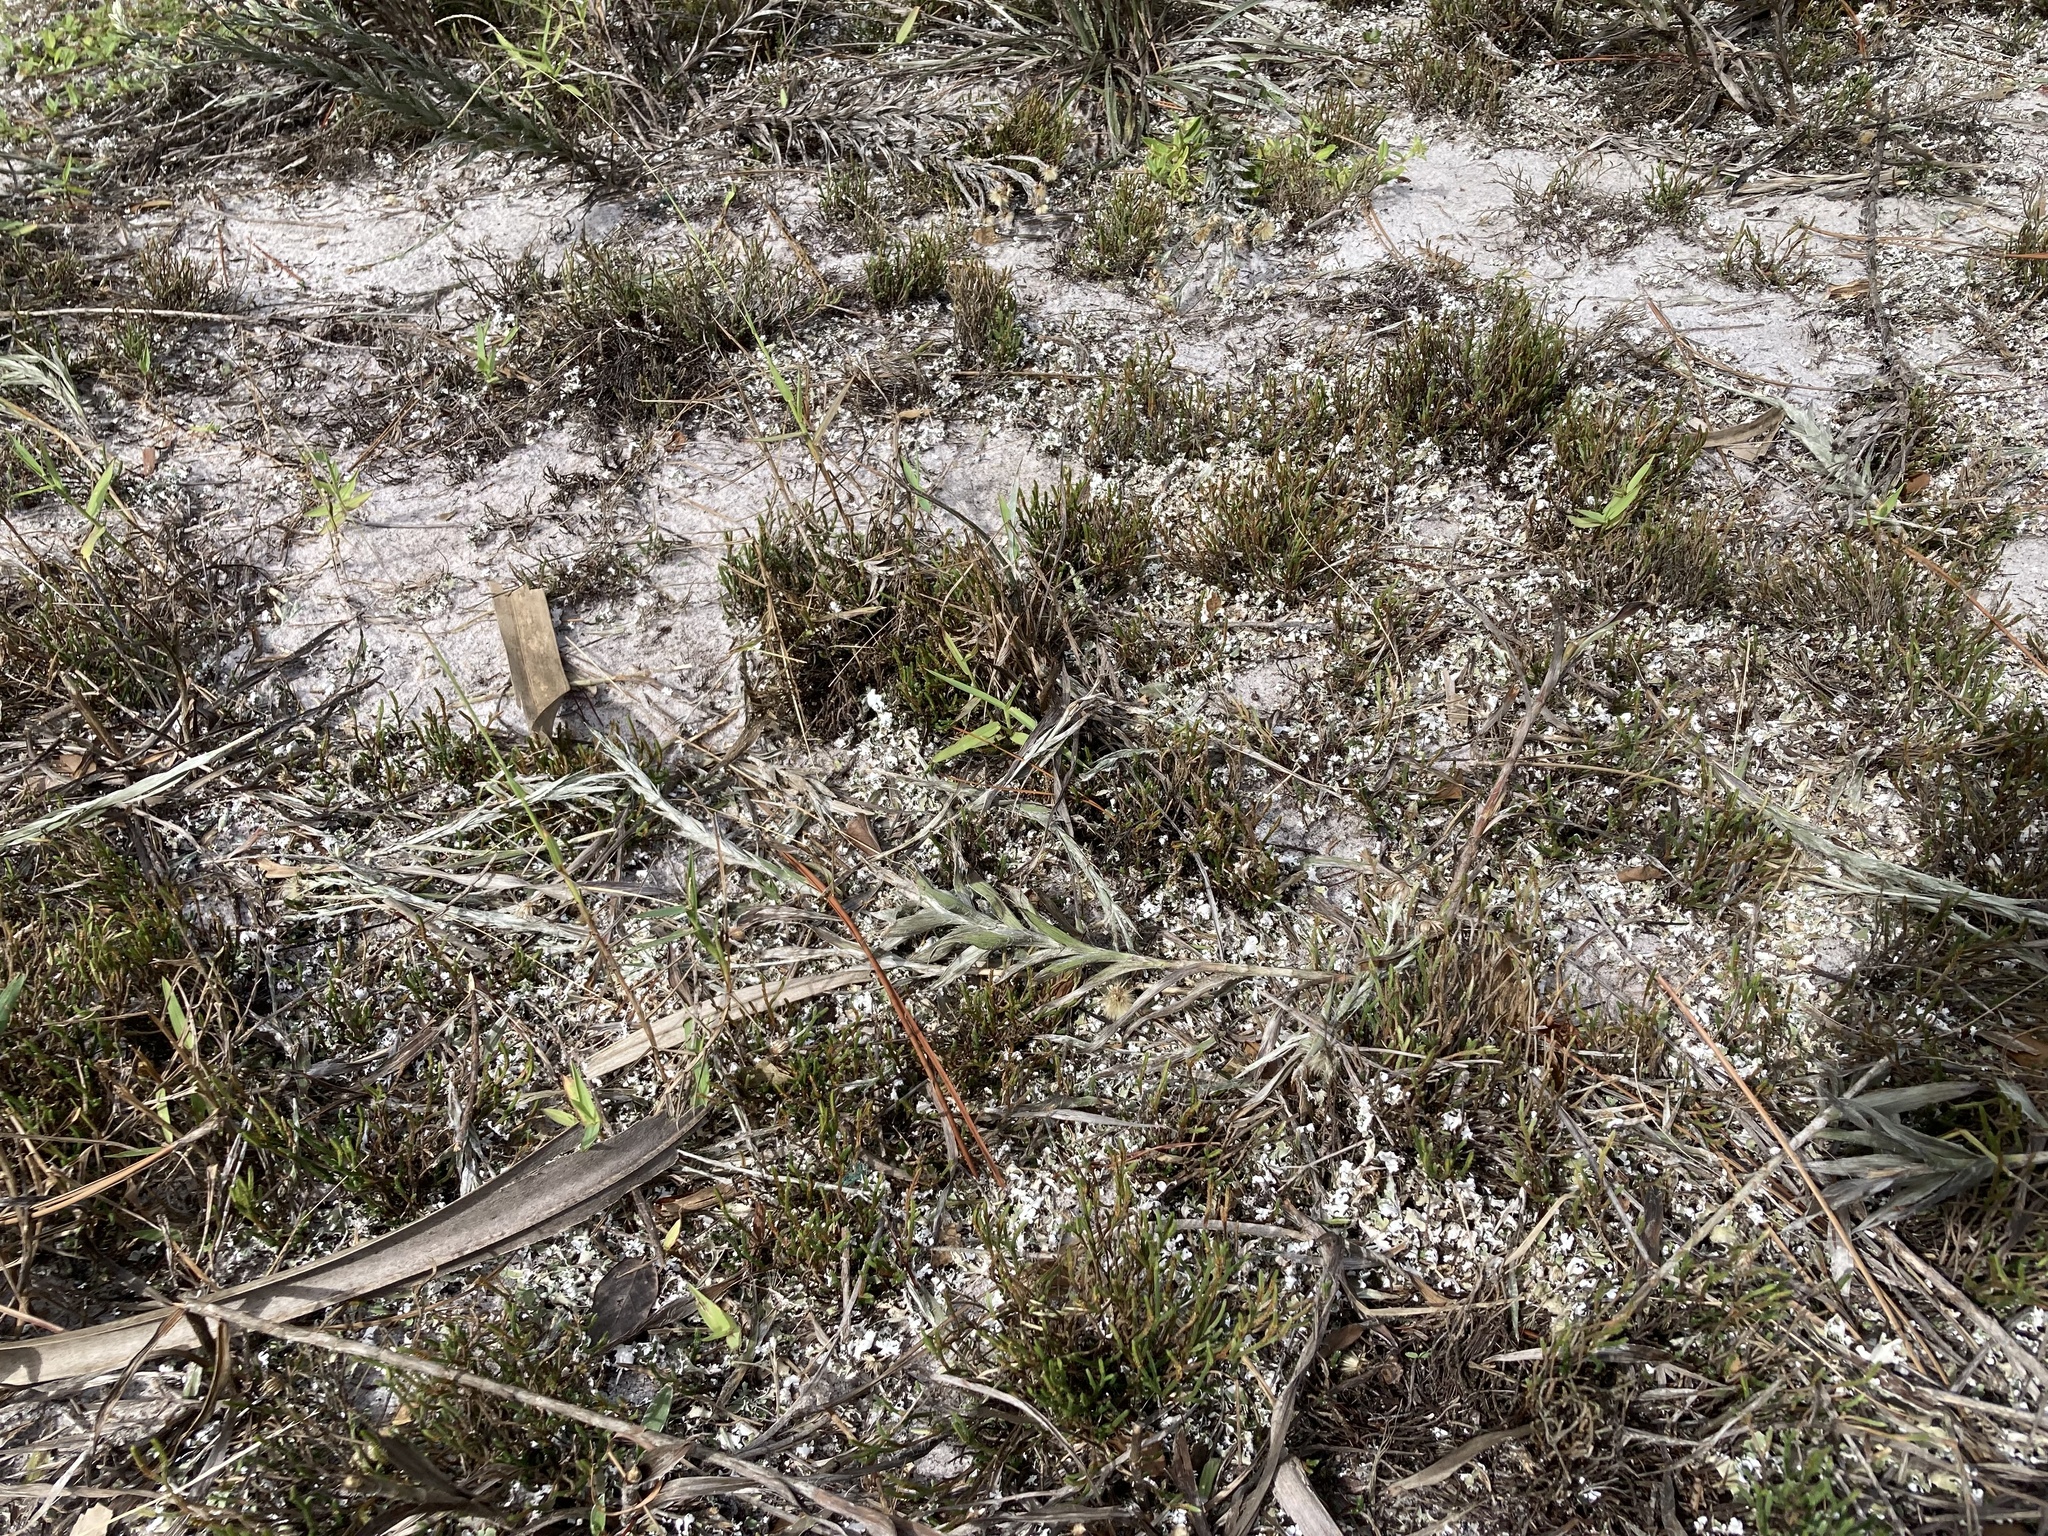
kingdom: Plantae
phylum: Tracheophyta
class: Lycopodiopsida
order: Selaginellales
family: Selaginellaceae
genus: Selaginella
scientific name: Selaginella arenicola
